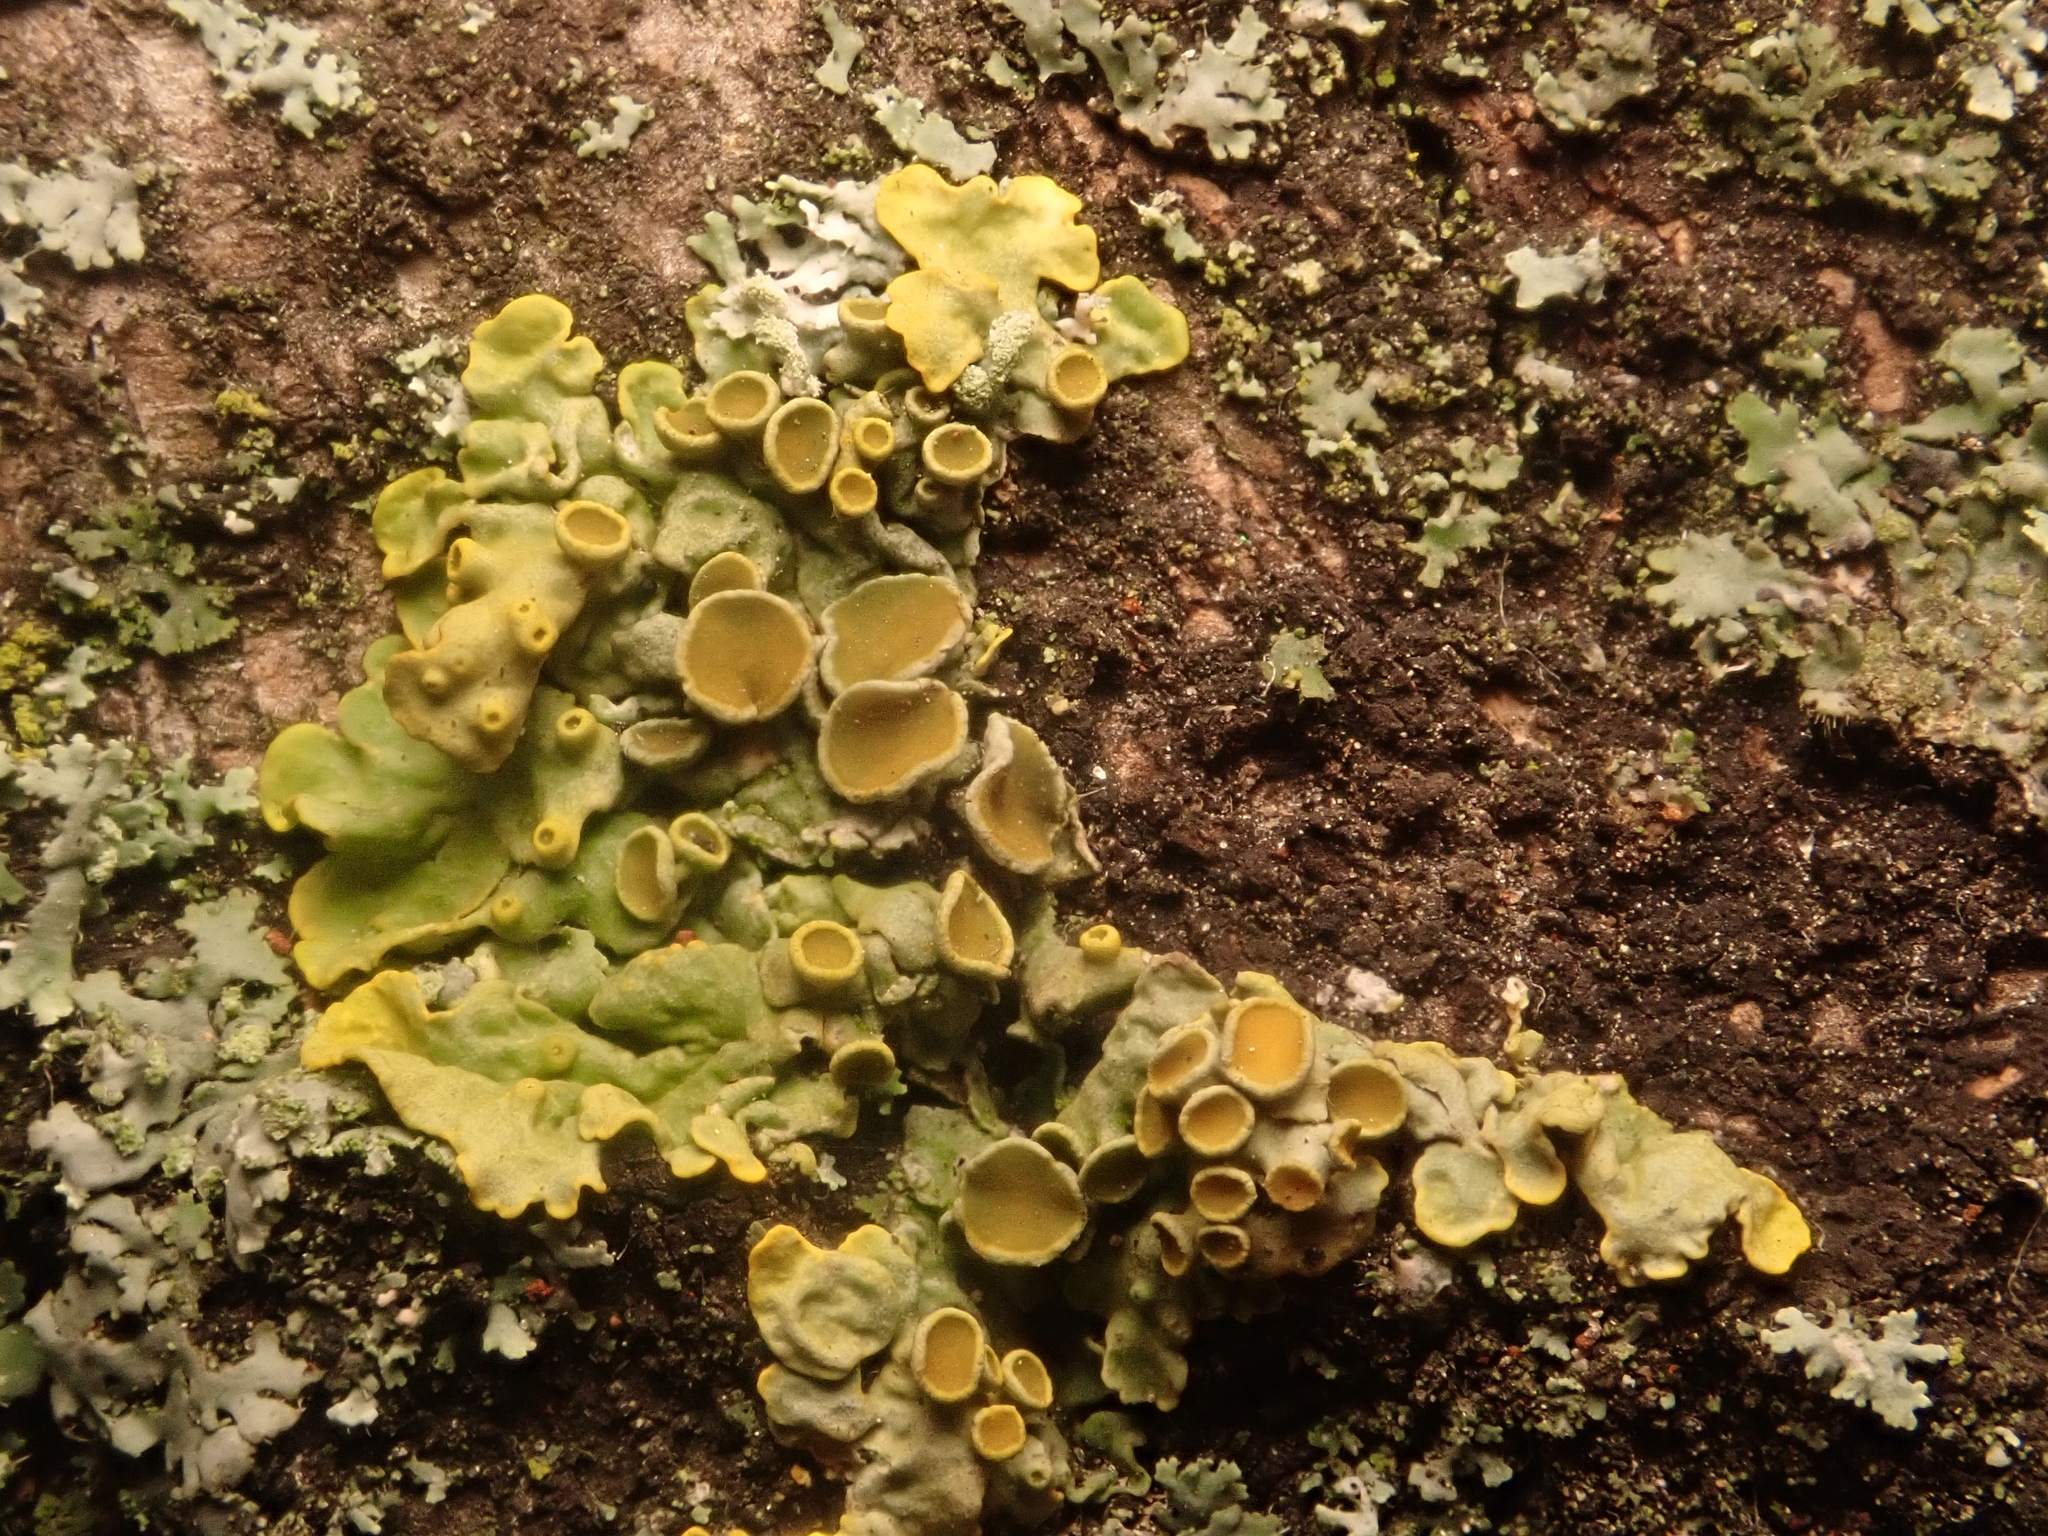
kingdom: Fungi
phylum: Ascomycota
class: Lecanoromycetes
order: Teloschistales
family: Teloschistaceae
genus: Xanthoria
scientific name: Xanthoria parietina
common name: Common orange lichen
